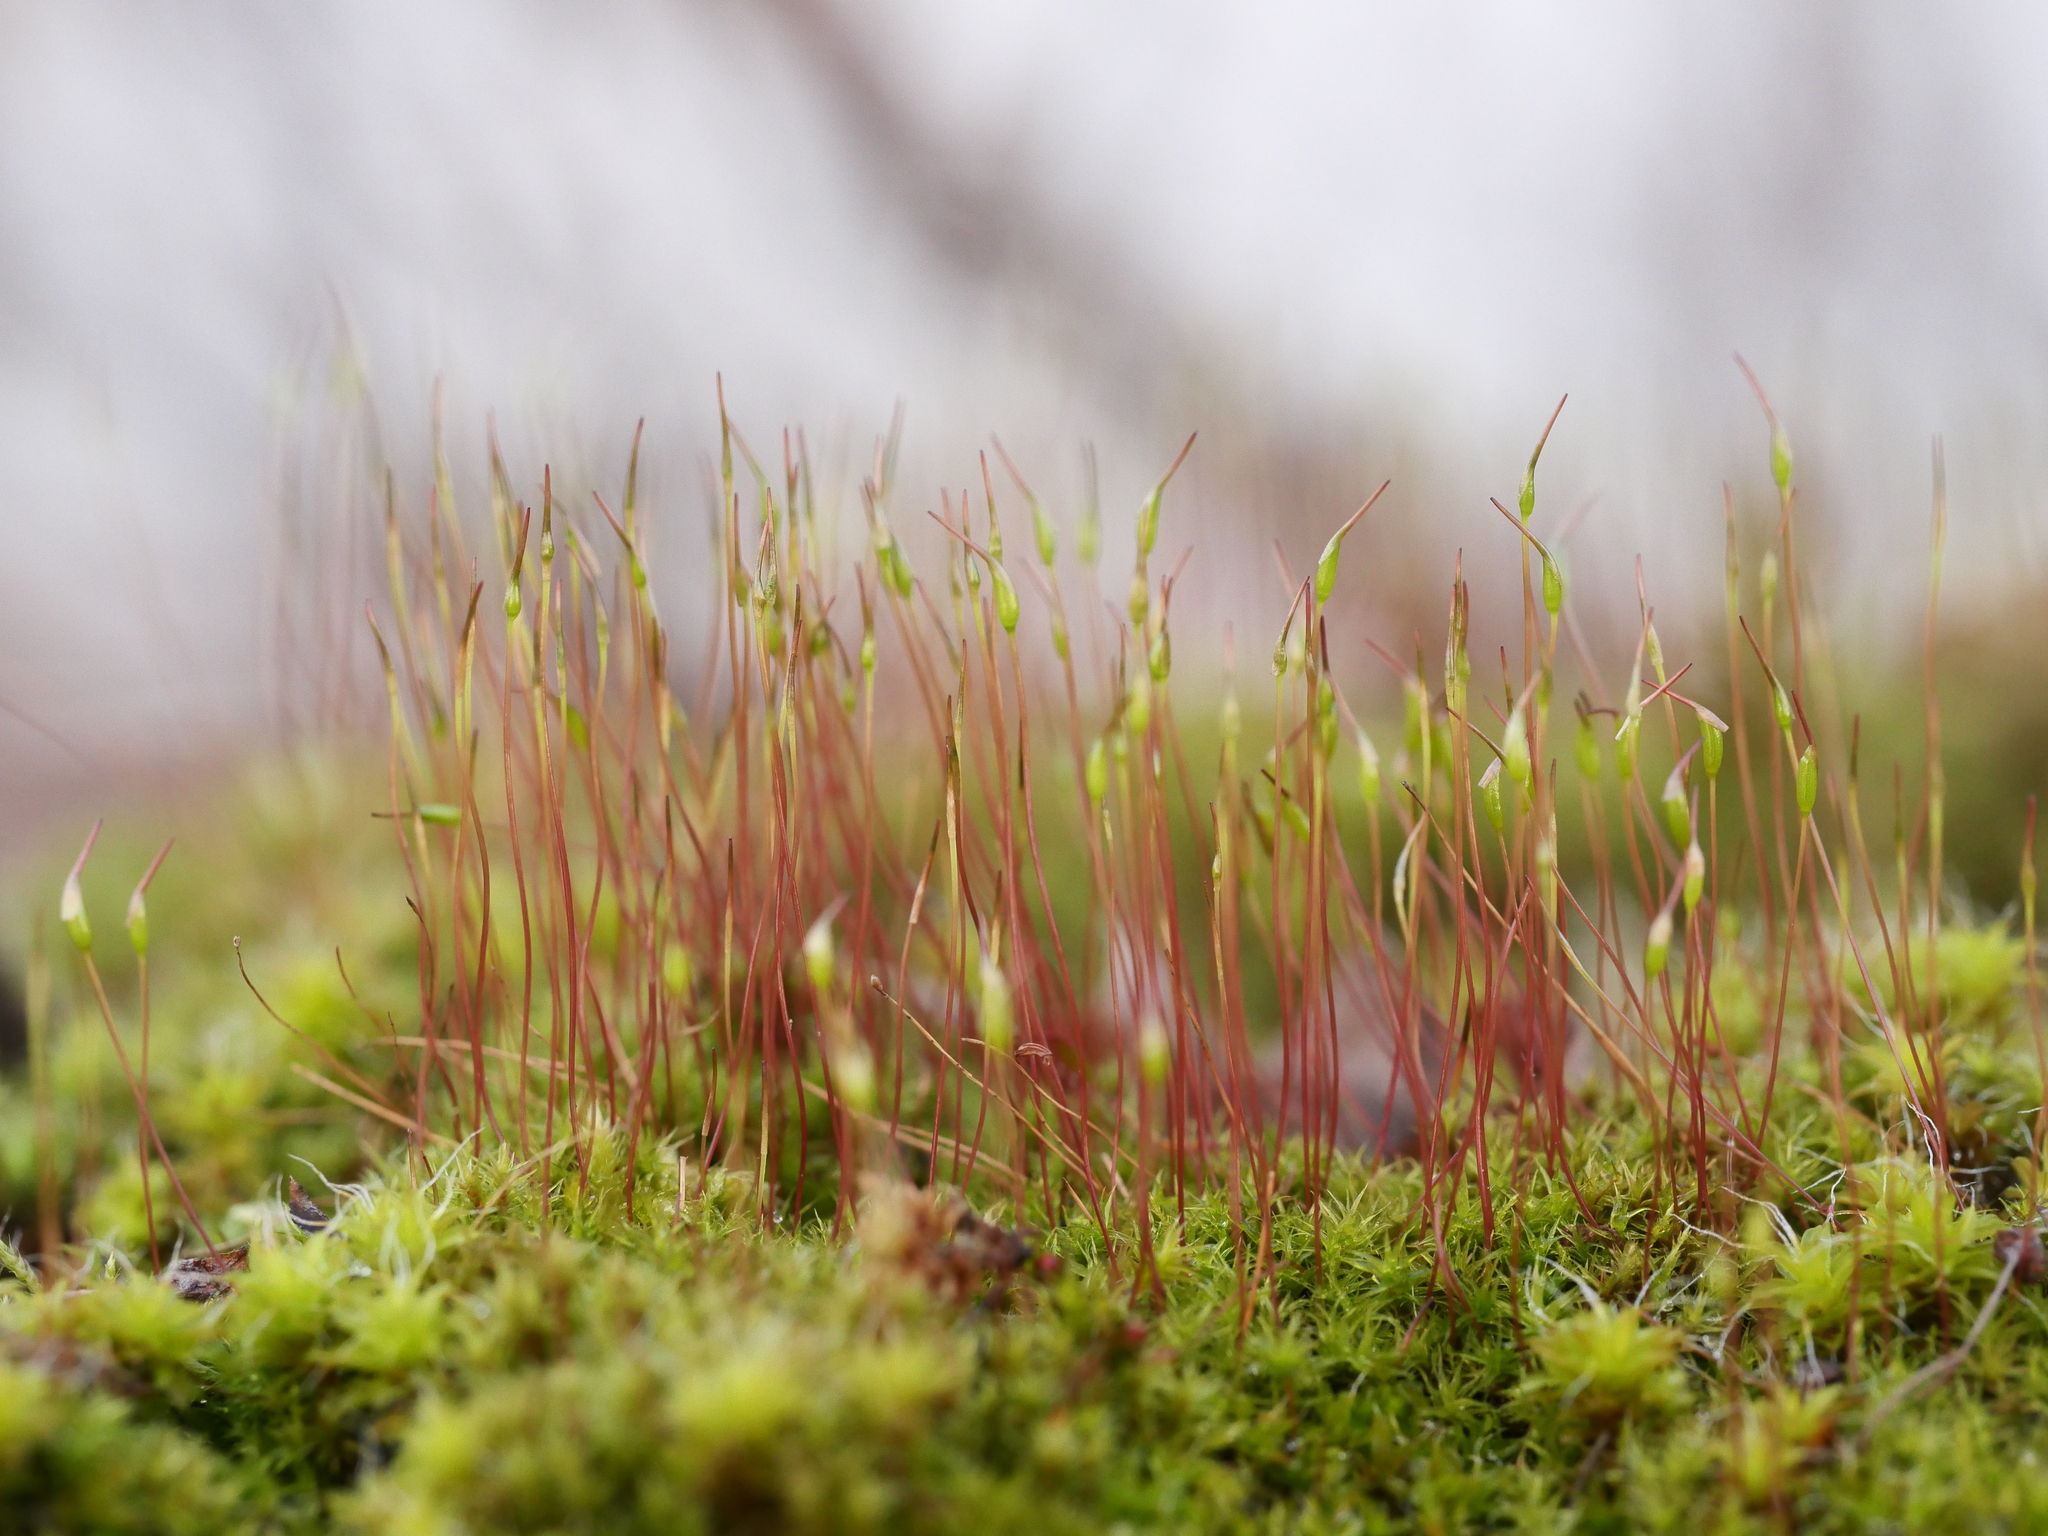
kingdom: Plantae
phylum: Bryophyta
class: Bryopsida
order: Dicranales
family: Ditrichaceae
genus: Ceratodon
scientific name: Ceratodon purpureus
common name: Redshank
